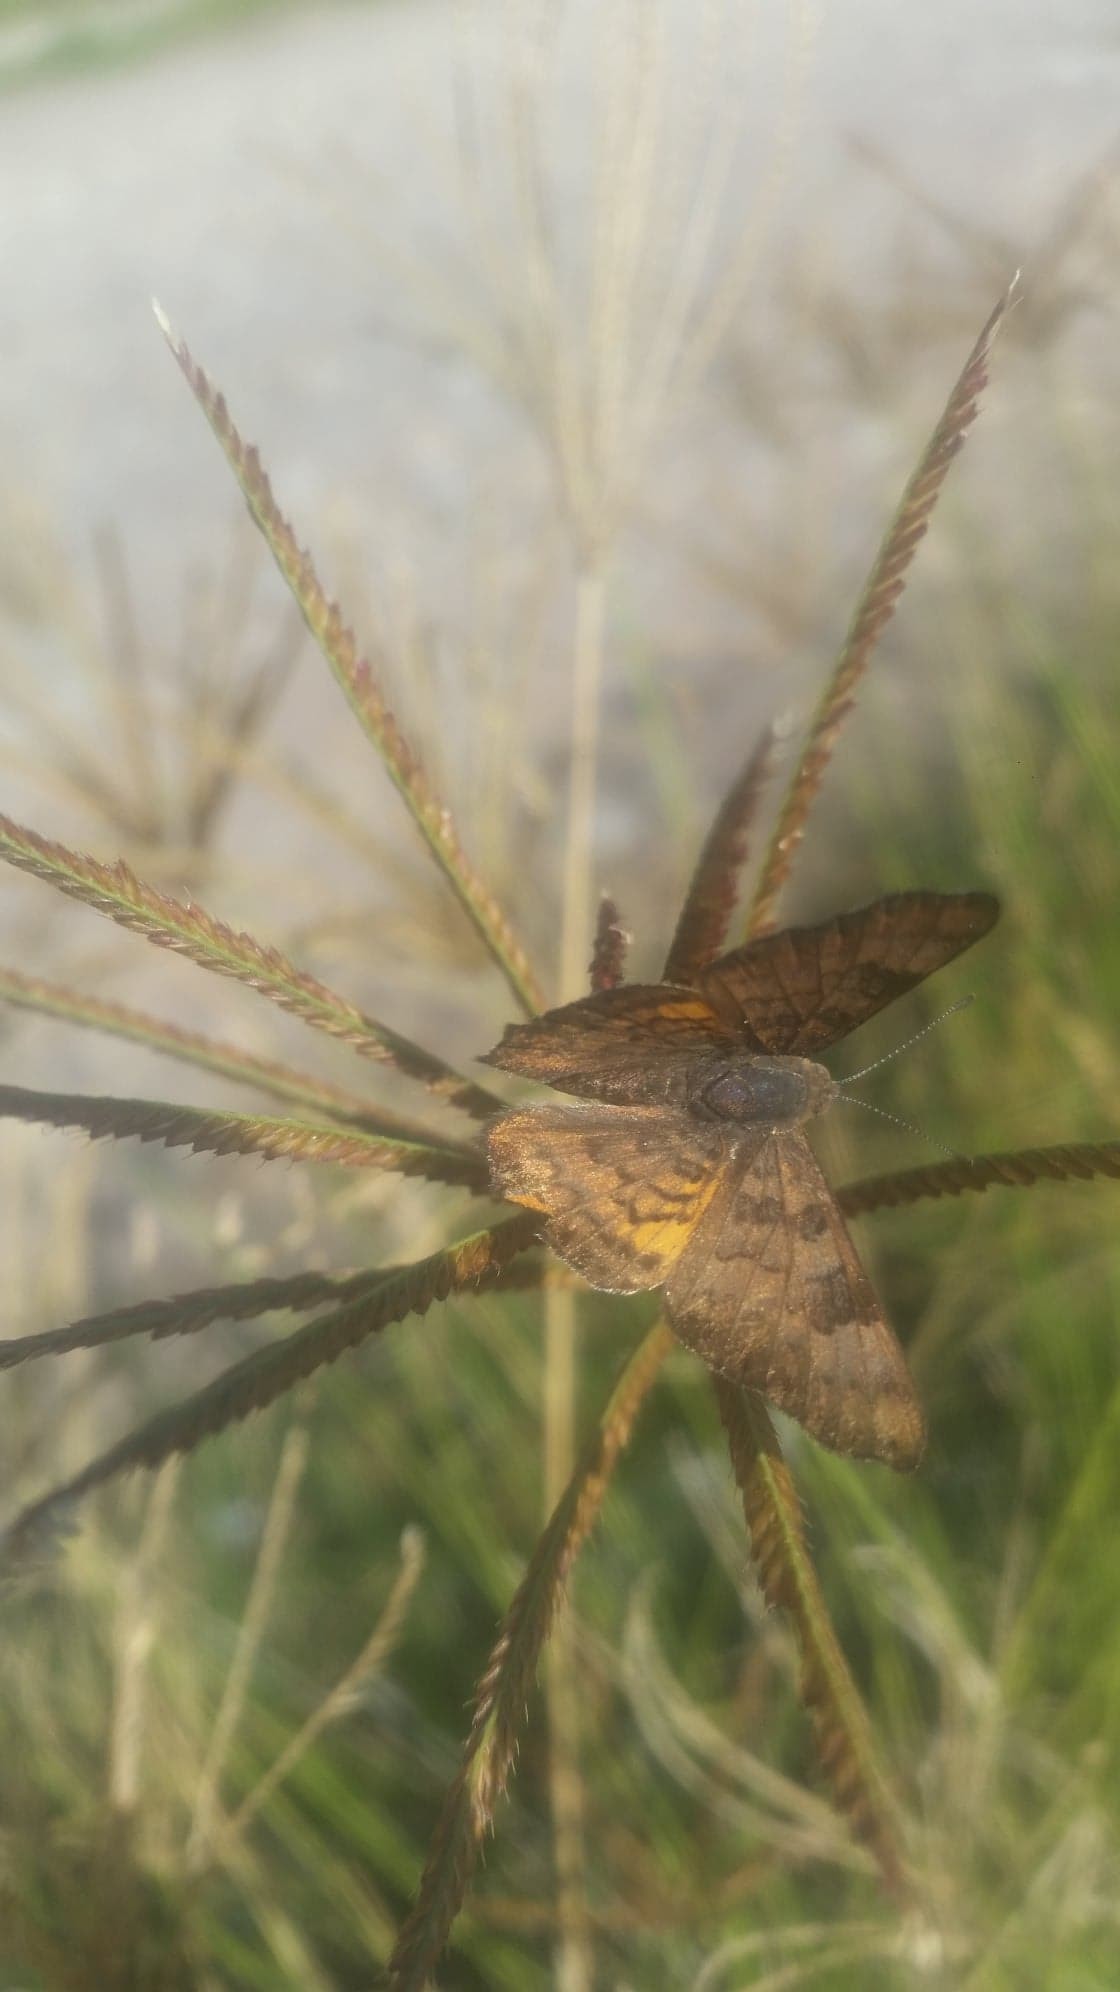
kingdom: Animalia
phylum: Arthropoda
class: Insecta
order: Lepidoptera
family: Riodinidae
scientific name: Riodinidae
